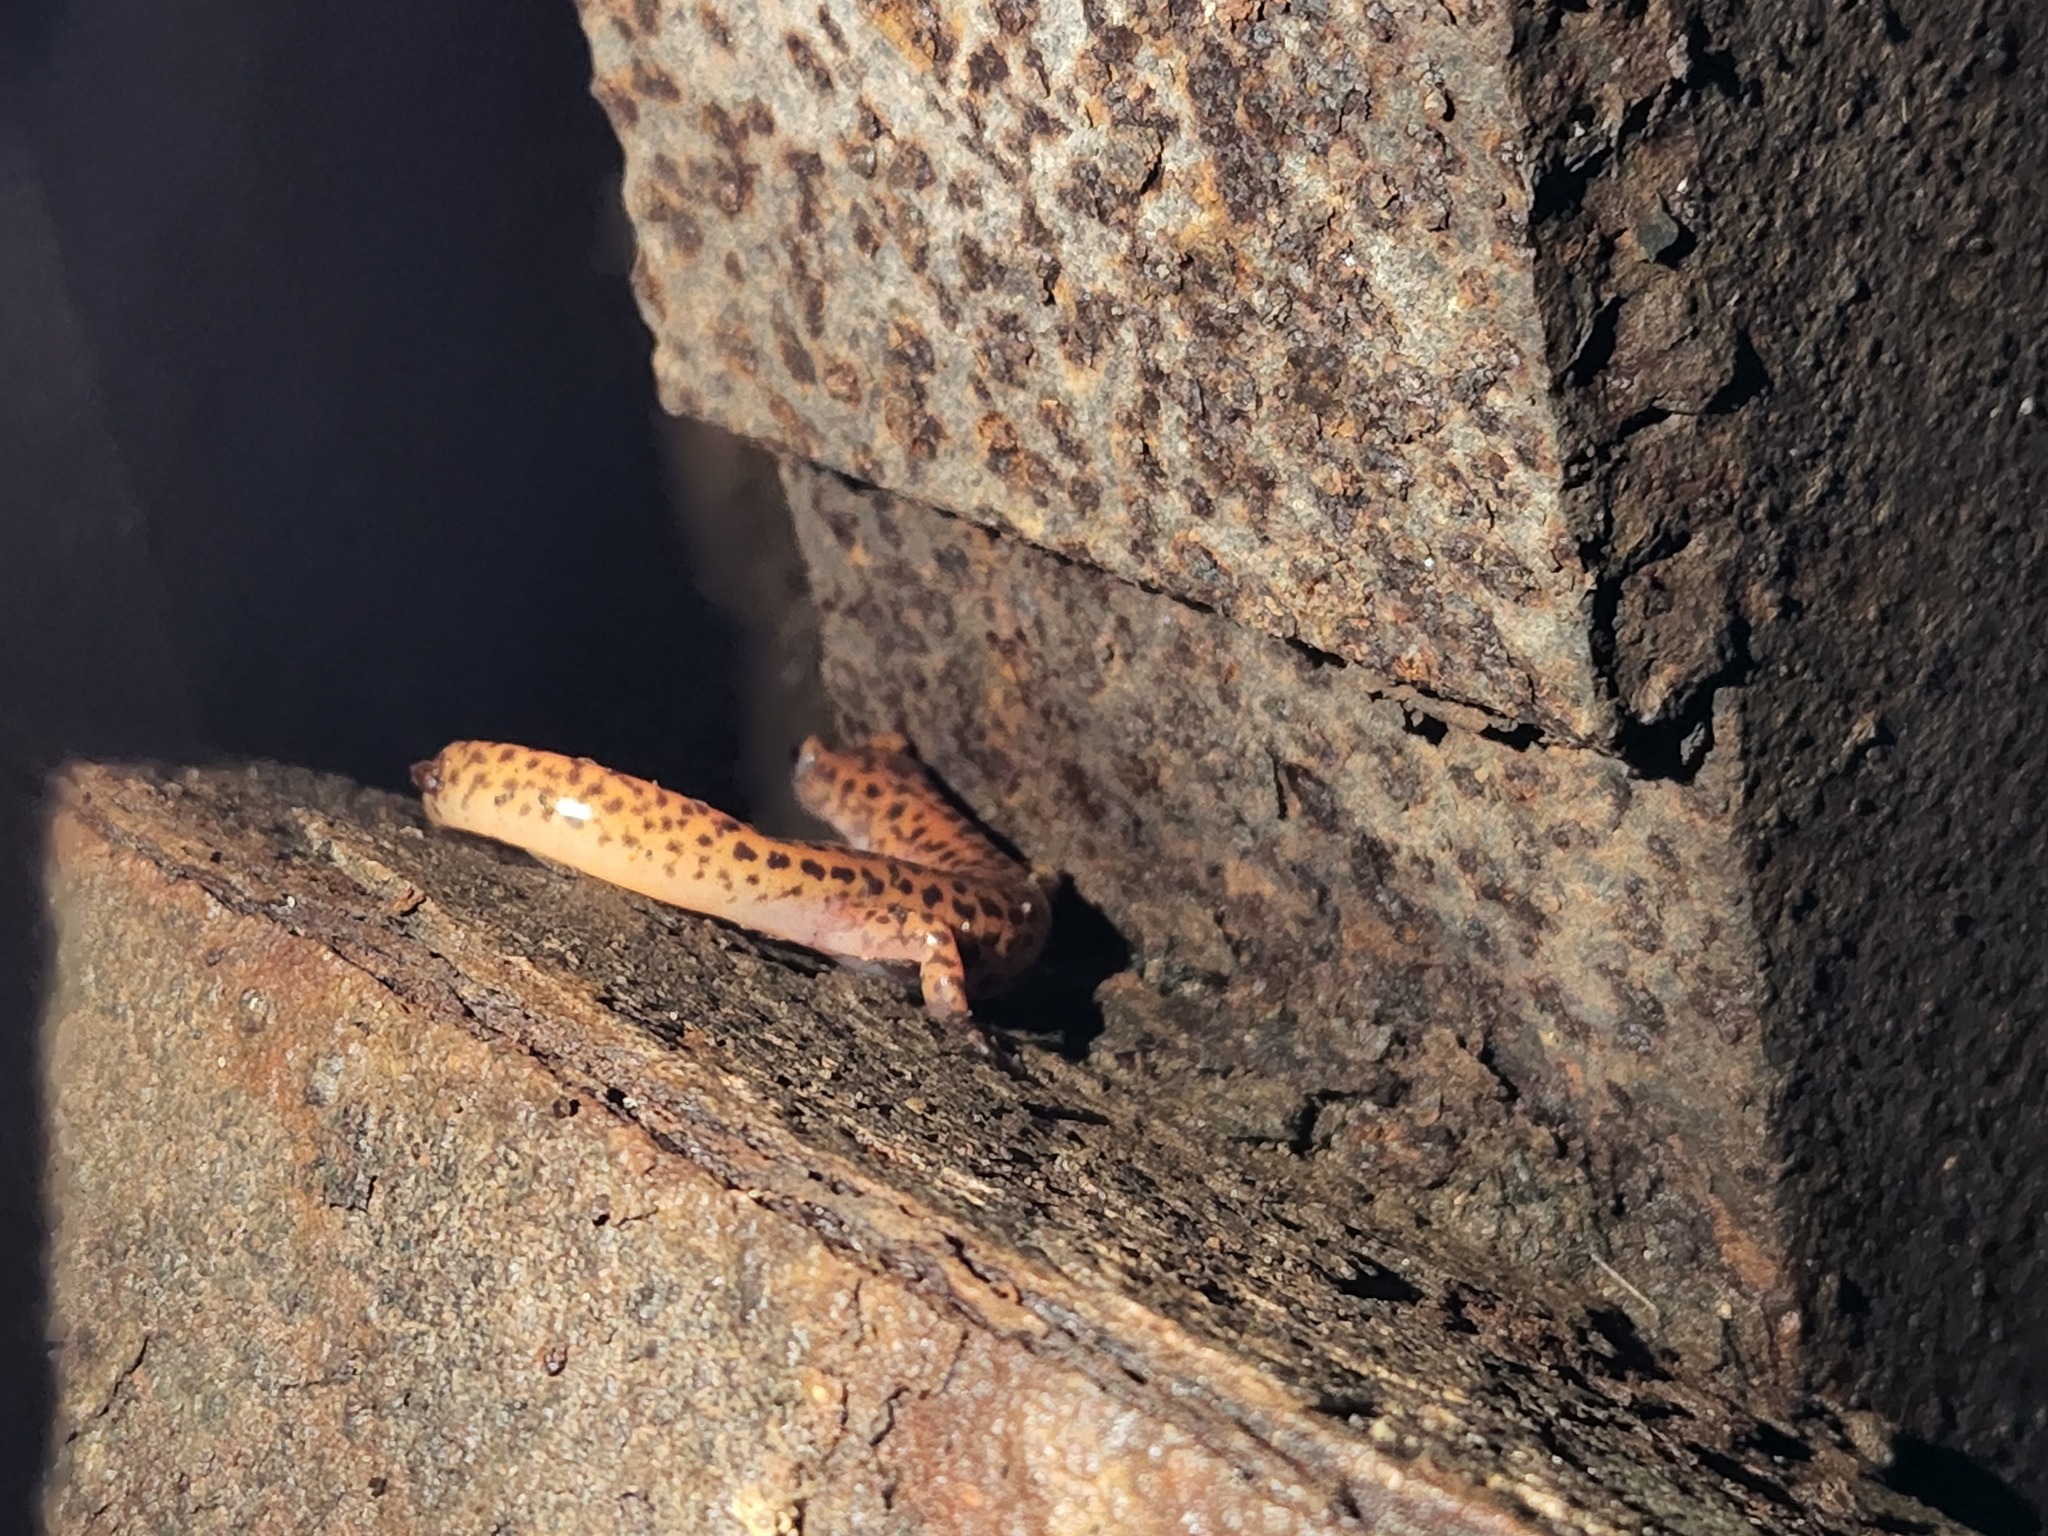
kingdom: Animalia
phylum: Chordata
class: Amphibia
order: Caudata
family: Plethodontidae
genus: Eurycea
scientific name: Eurycea lucifuga
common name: Cave salamander
